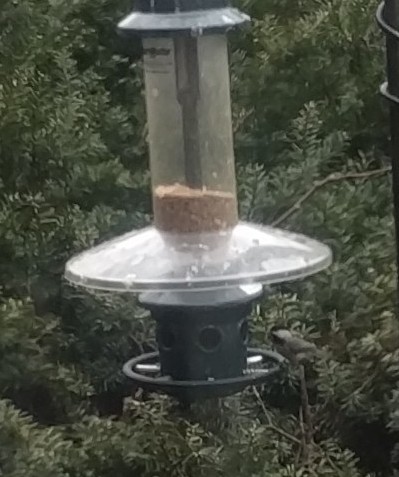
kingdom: Animalia
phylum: Chordata
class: Aves
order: Passeriformes
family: Paridae
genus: Poecile
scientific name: Poecile carolinensis
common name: Carolina chickadee
